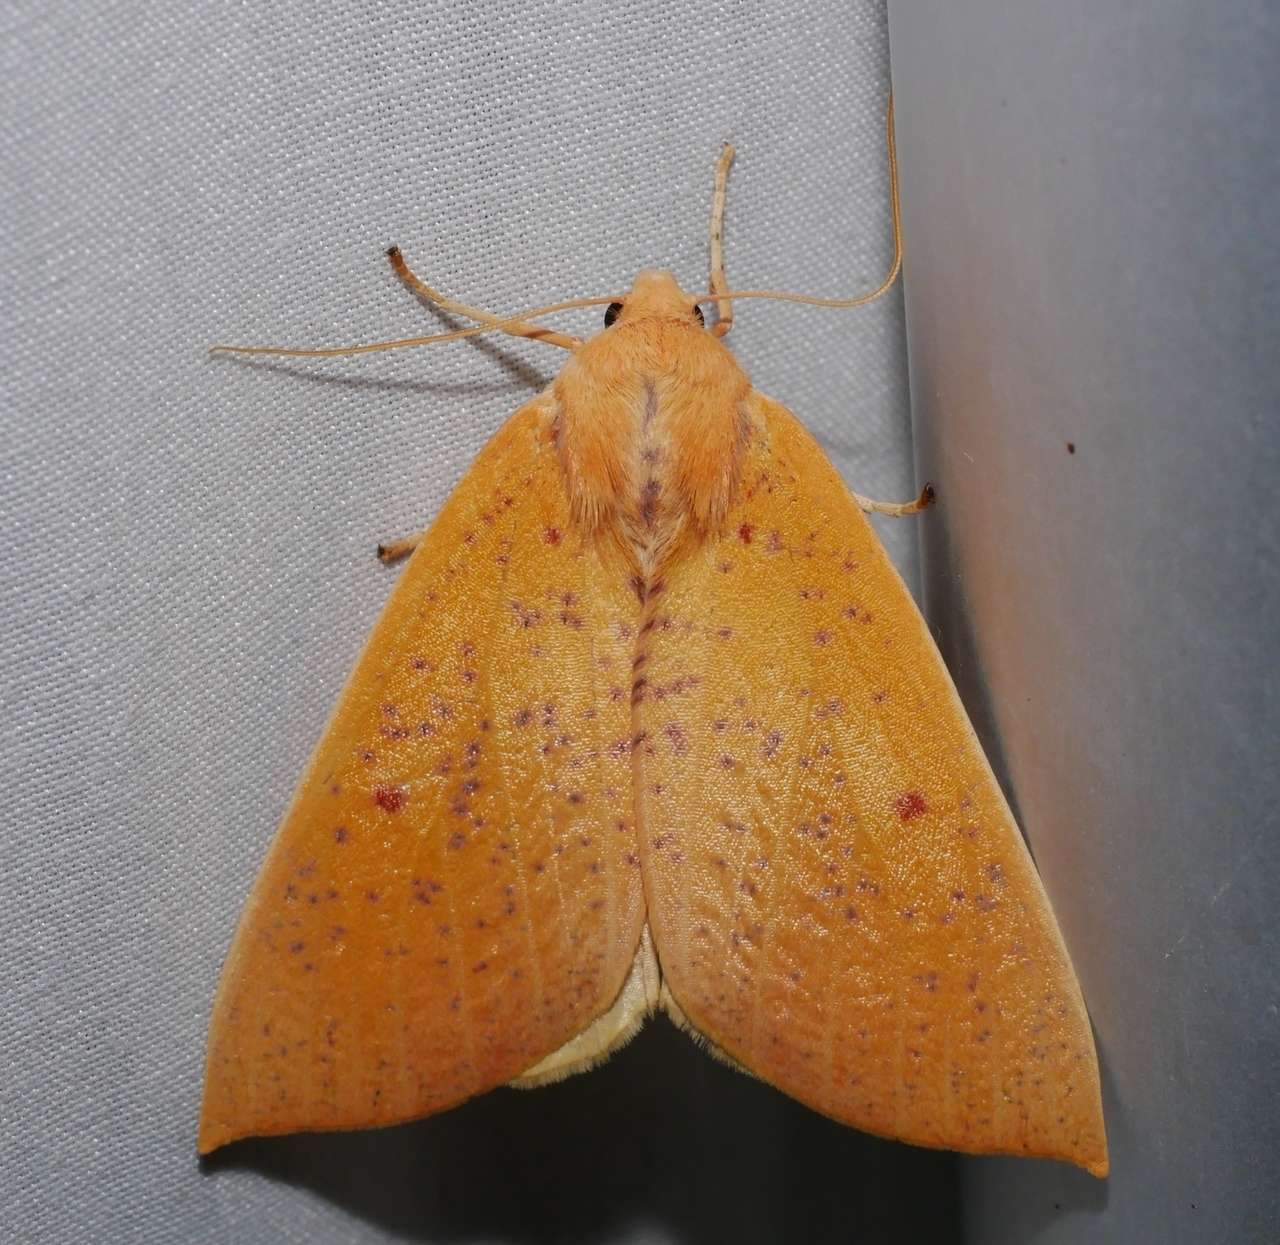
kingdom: Animalia
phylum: Arthropoda
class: Insecta
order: Lepidoptera
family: Geometridae
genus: Plesanemma
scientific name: Plesanemma fucata
